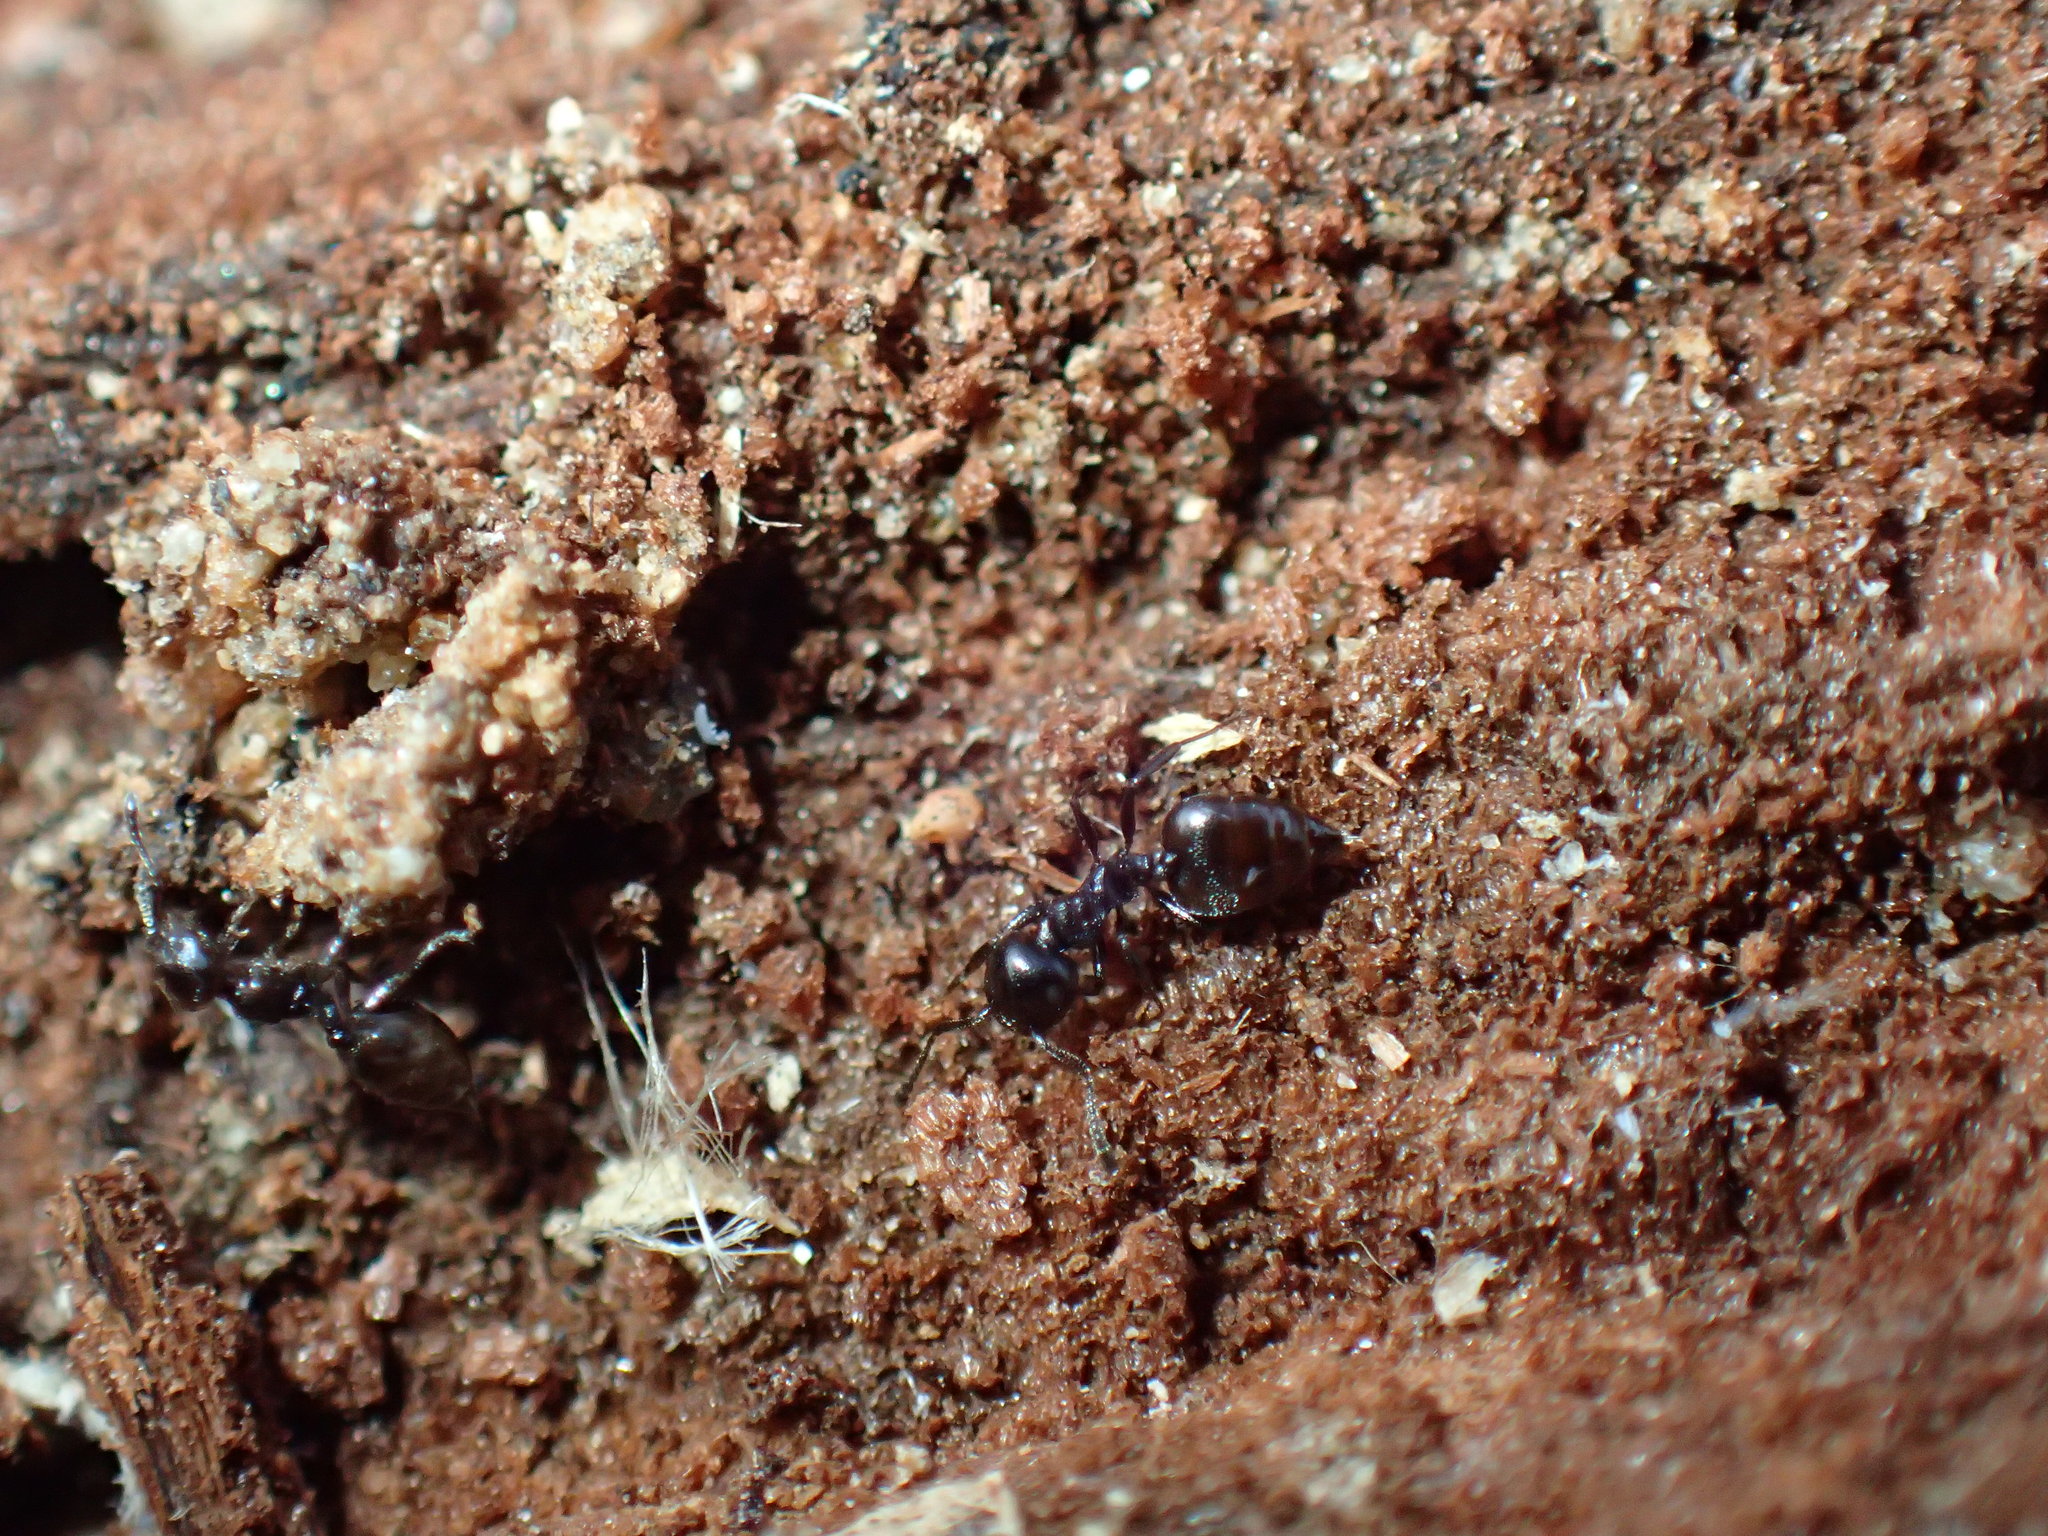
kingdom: Animalia
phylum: Arthropoda
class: Insecta
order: Hymenoptera
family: Formicidae
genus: Crematogaster
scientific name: Crematogaster liengmei
